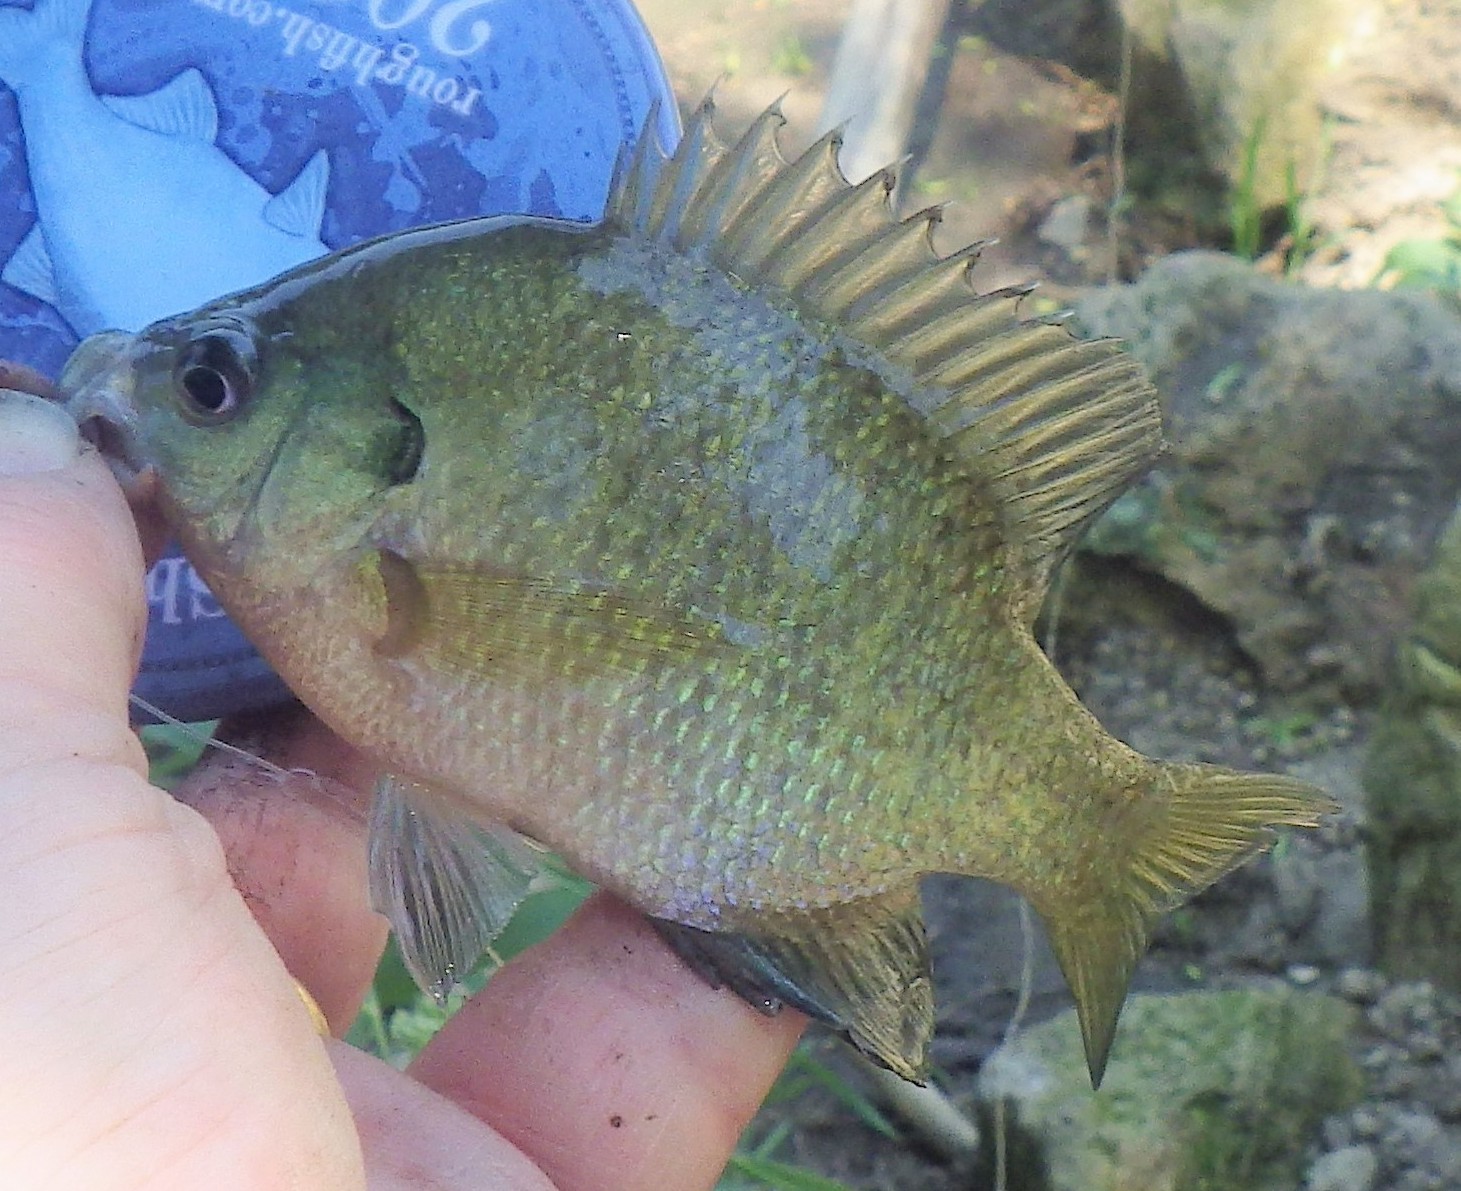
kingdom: Animalia
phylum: Chordata
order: Perciformes
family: Centrarchidae
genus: Lepomis
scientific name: Lepomis macrochirus
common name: Bluegill
